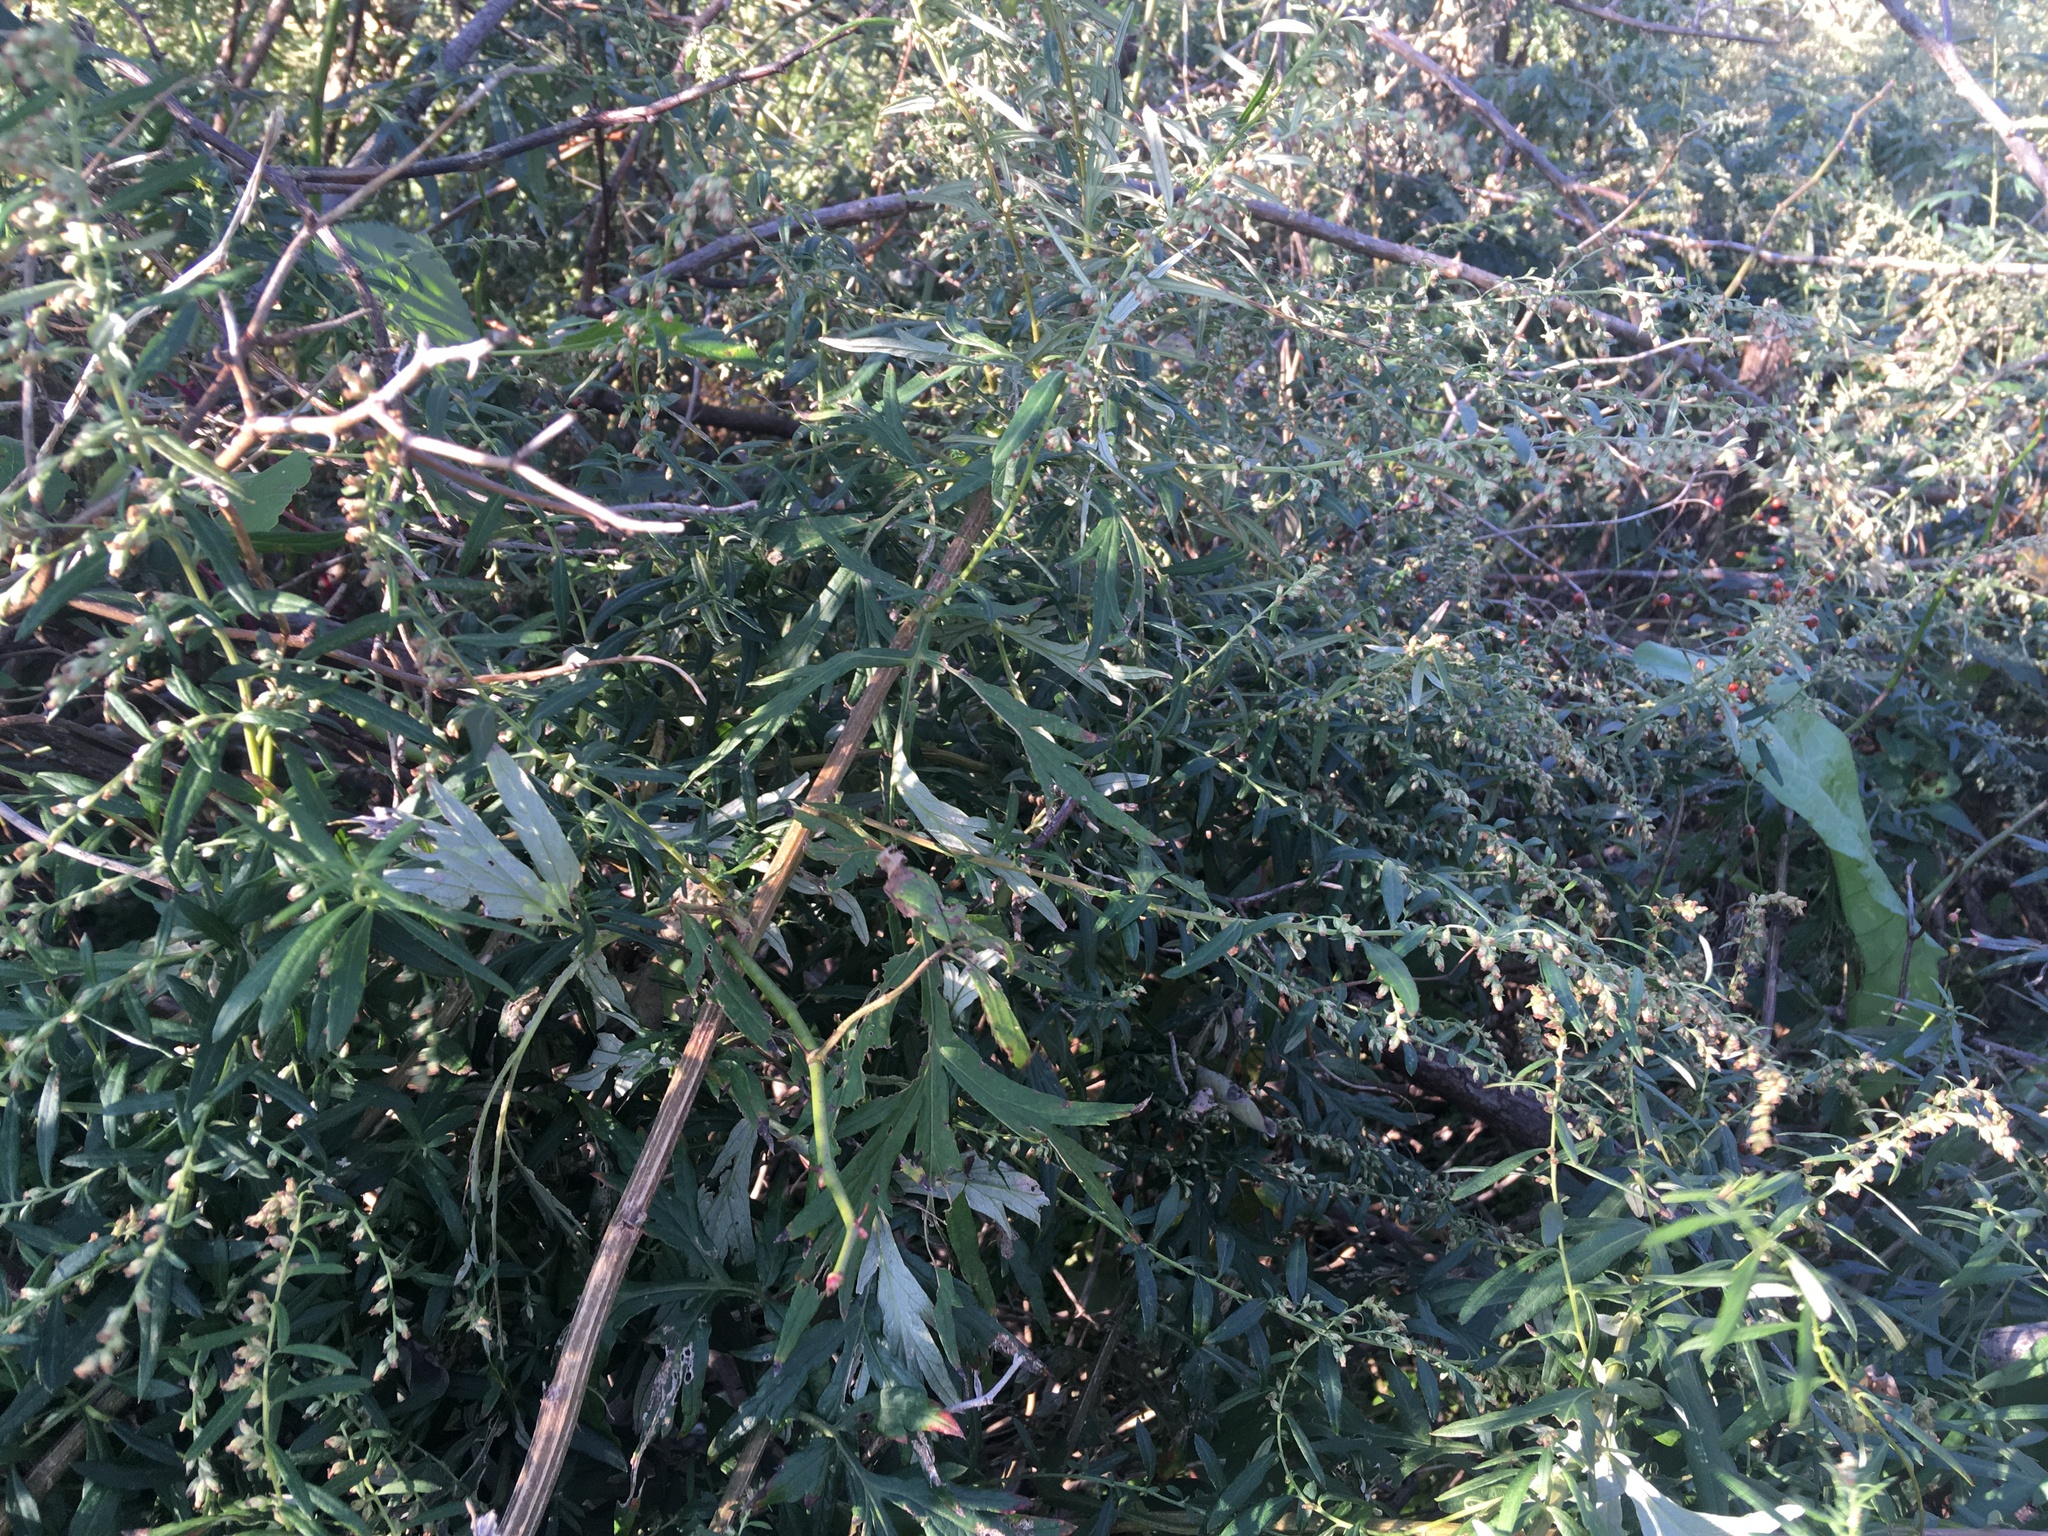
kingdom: Plantae
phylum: Tracheophyta
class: Magnoliopsida
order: Asterales
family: Asteraceae
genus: Artemisia
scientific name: Artemisia vulgaris
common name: Mugwort
